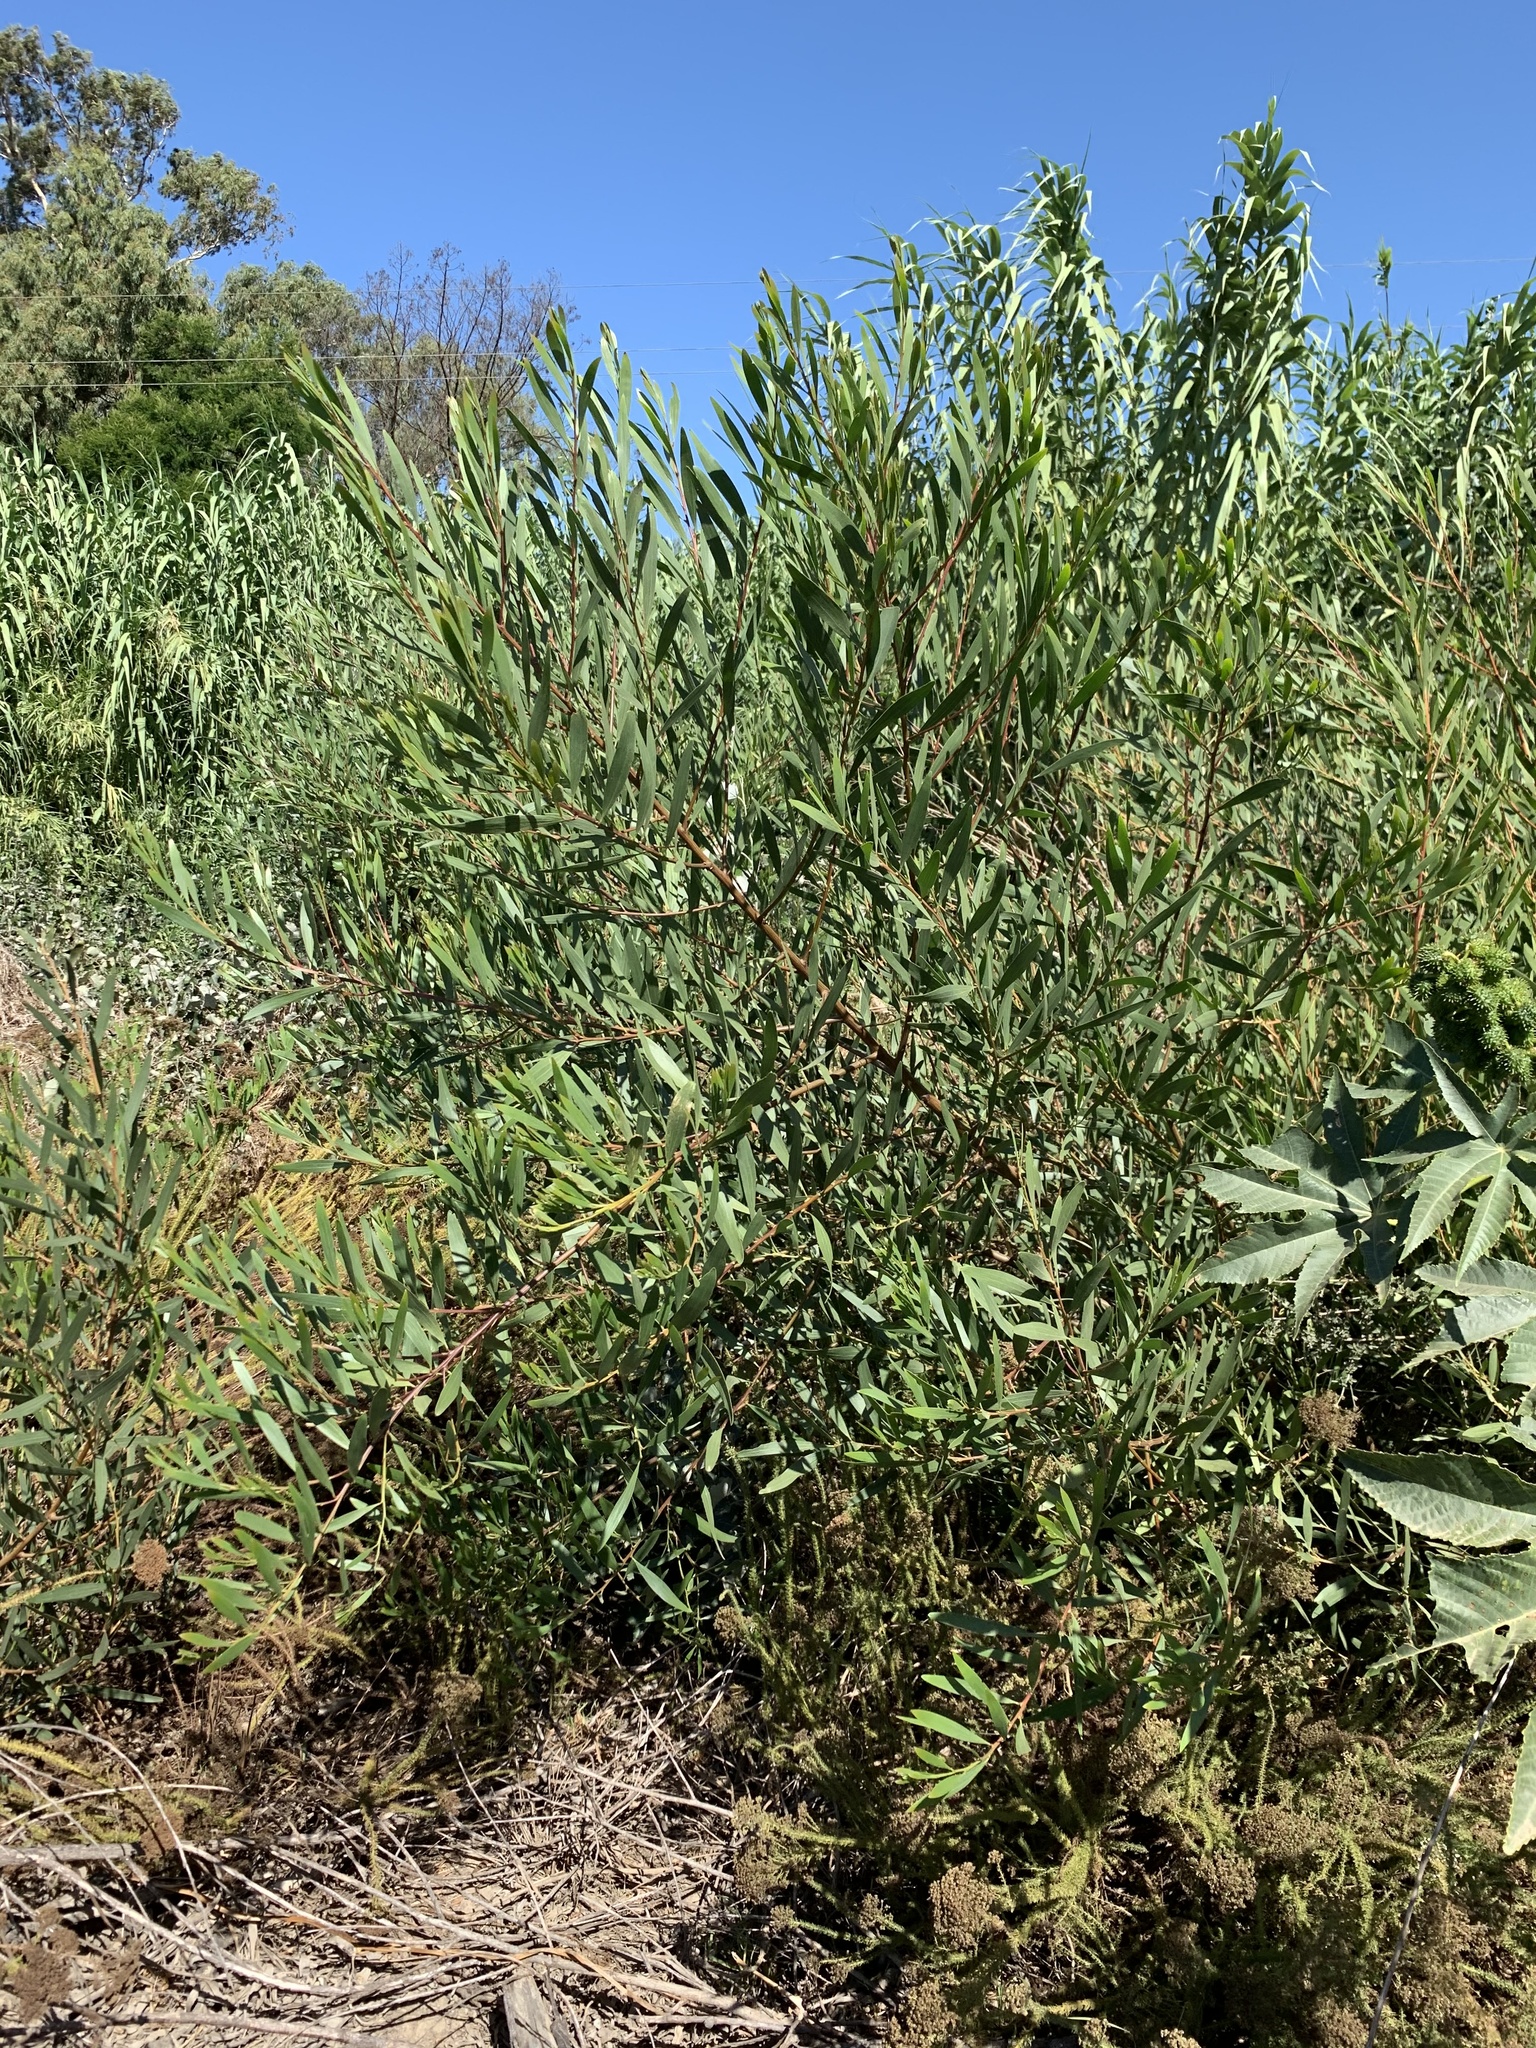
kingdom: Plantae
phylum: Tracheophyta
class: Magnoliopsida
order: Fabales
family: Fabaceae
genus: Acacia
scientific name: Acacia longifolia
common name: Sydney golden wattle
